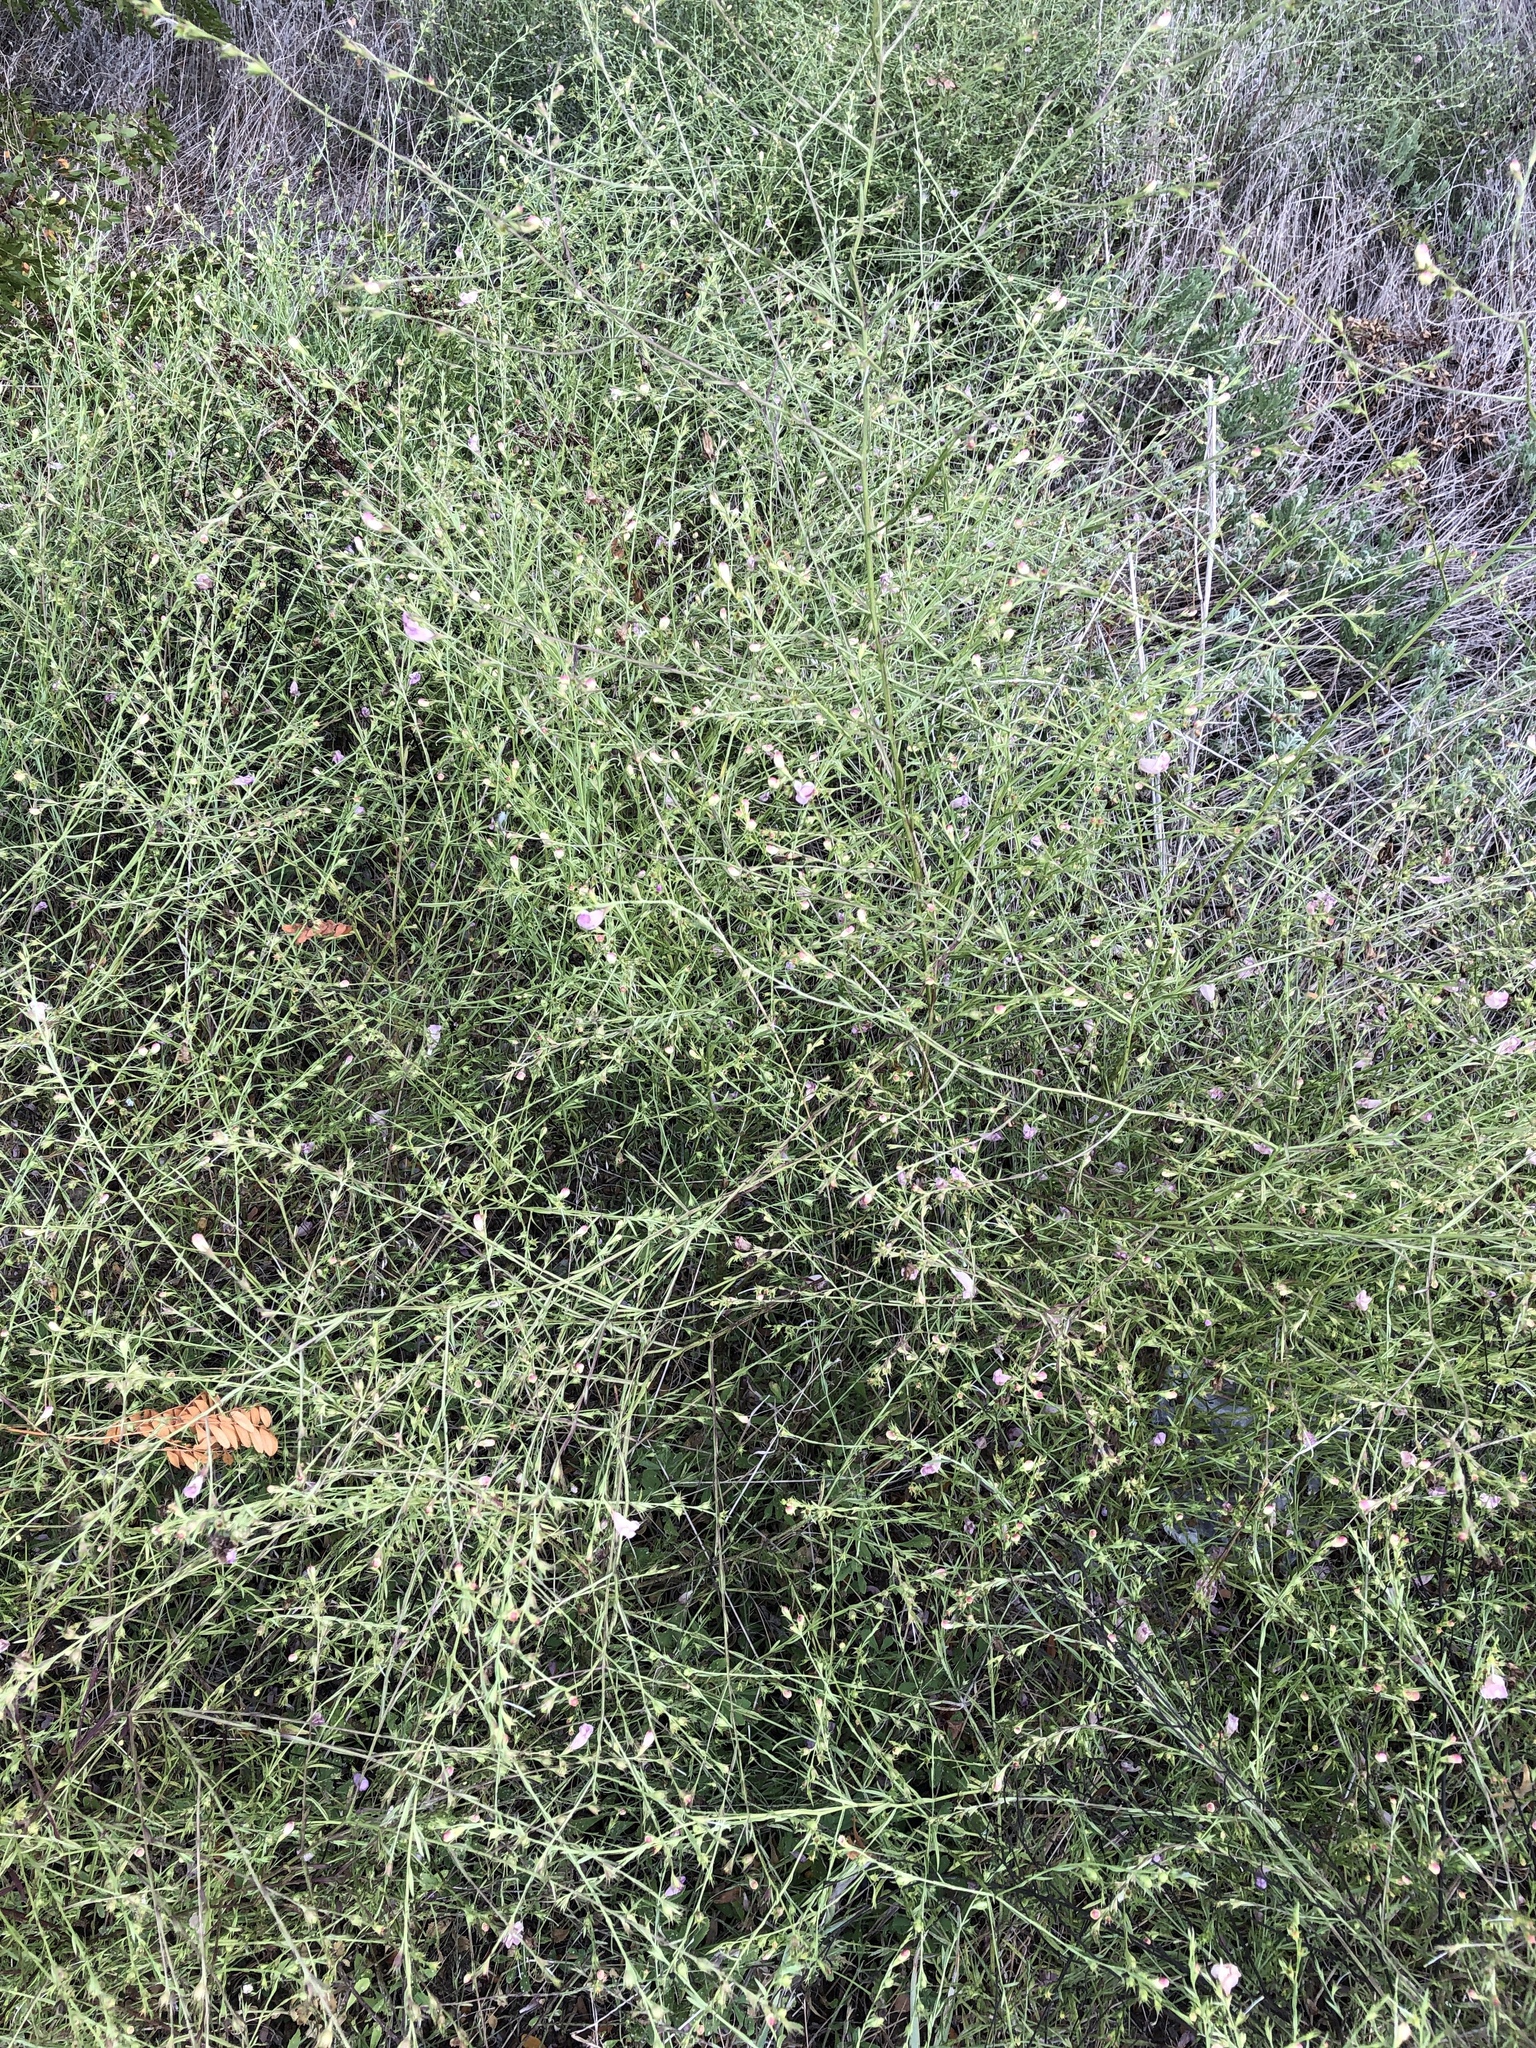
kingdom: Plantae
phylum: Tracheophyta
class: Magnoliopsida
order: Lamiales
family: Orobanchaceae
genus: Agalinis
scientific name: Agalinis heterophylla
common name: Prairie agalinis
